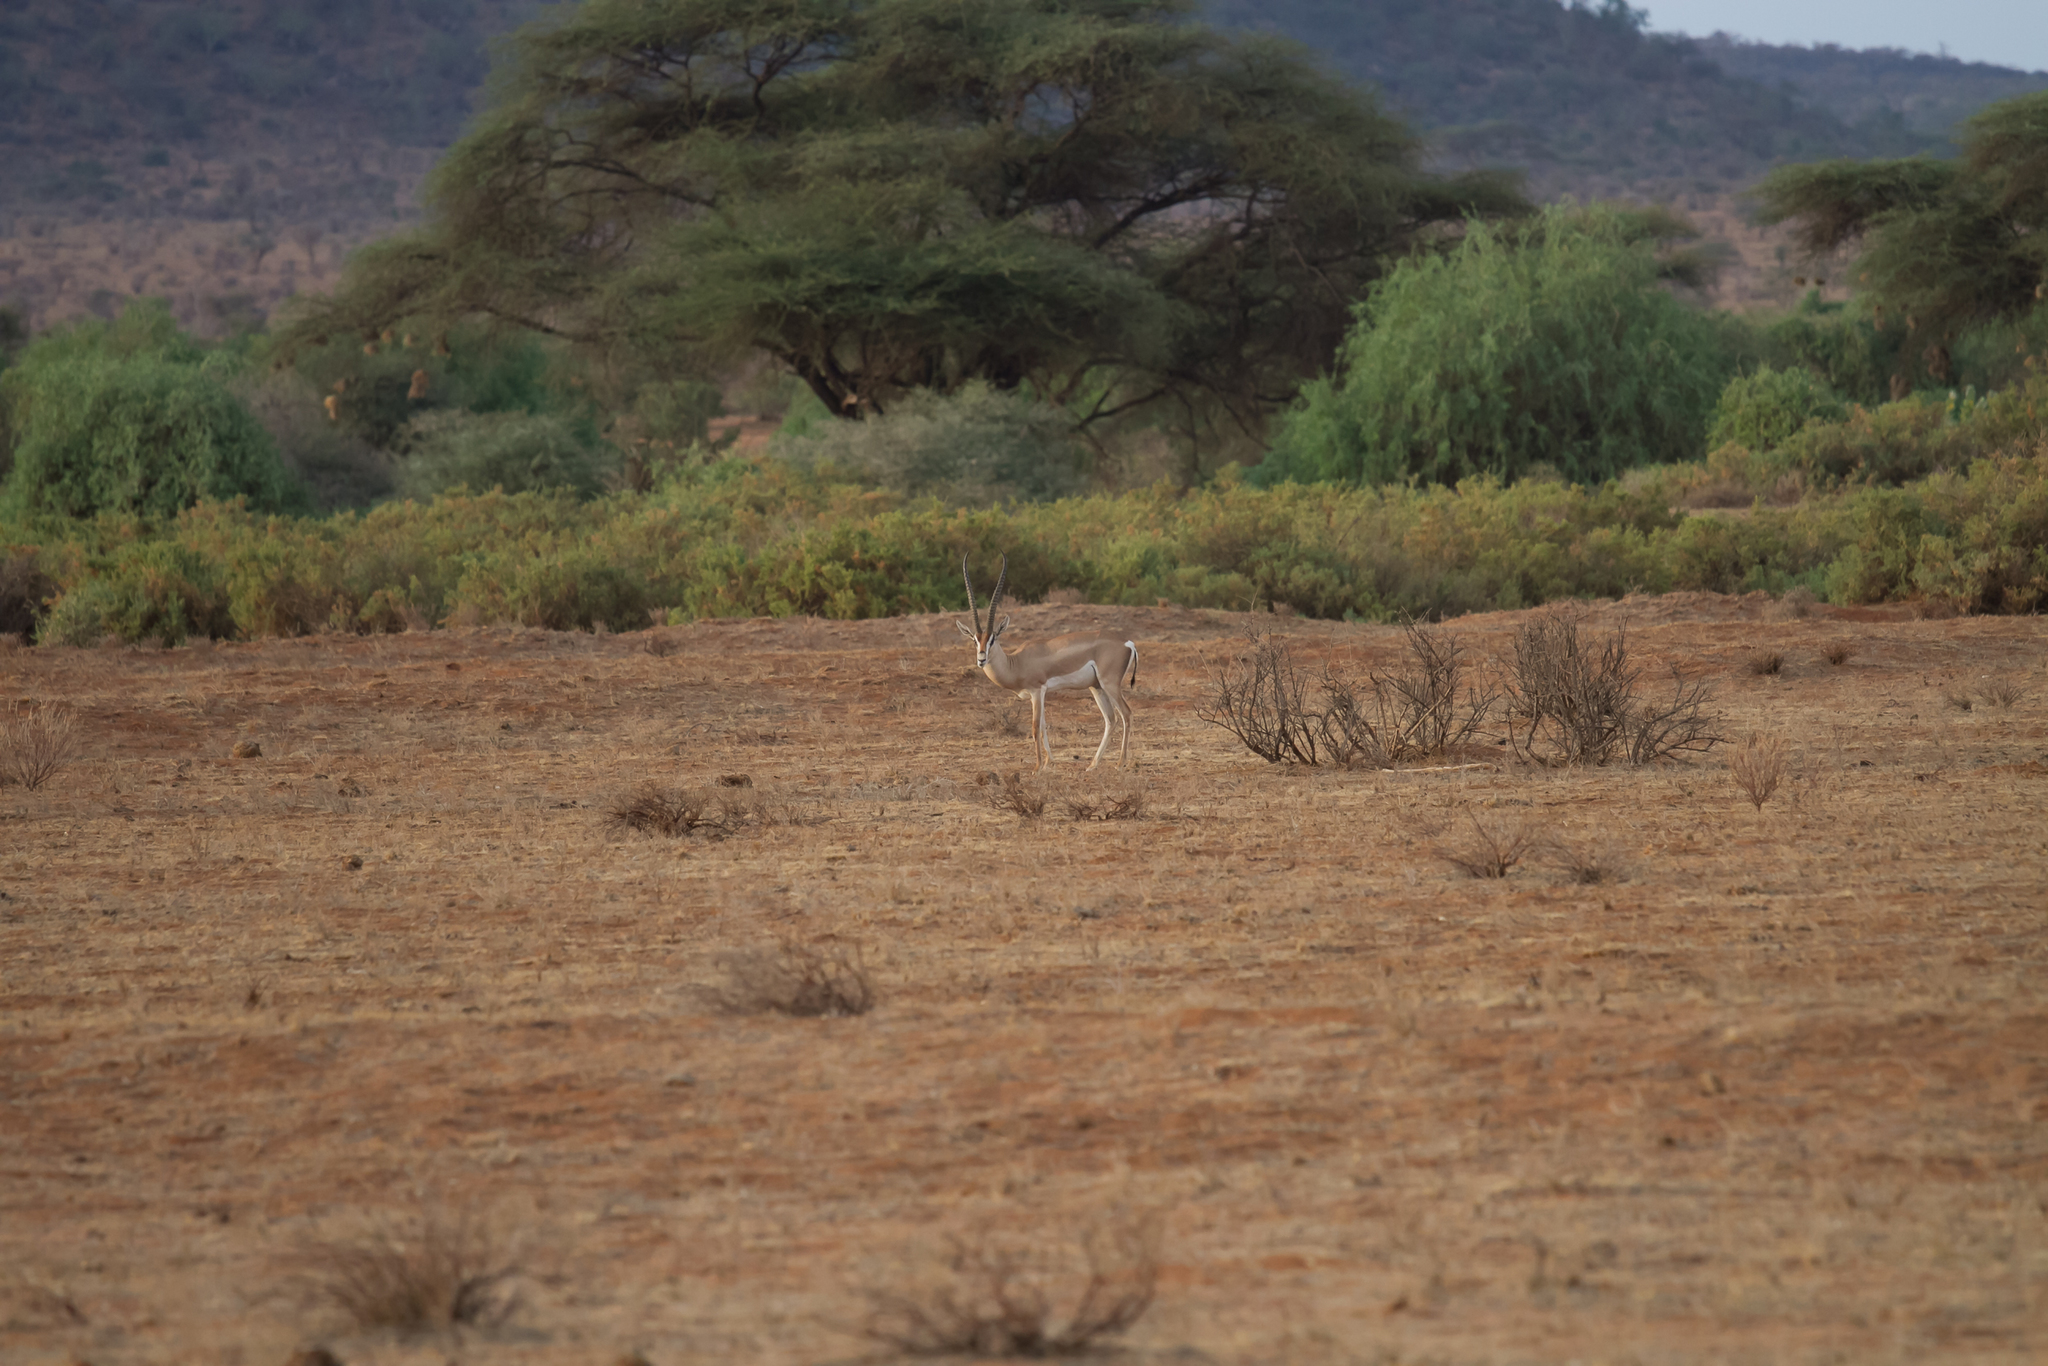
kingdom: Animalia
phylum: Chordata
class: Mammalia
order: Artiodactyla
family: Bovidae
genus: Nanger
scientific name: Nanger granti
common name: Grant's gazelle
